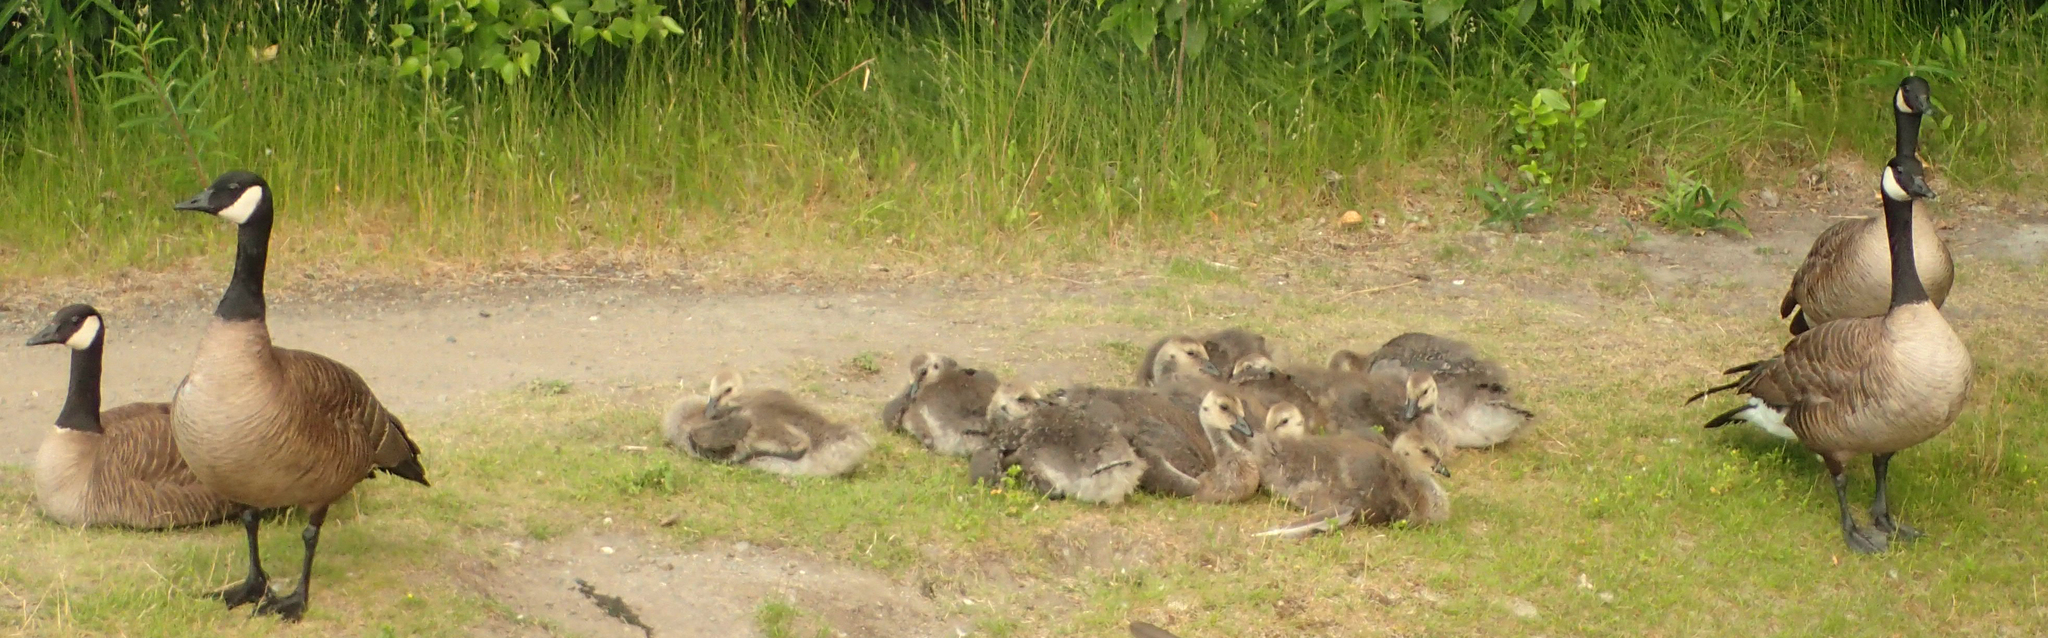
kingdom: Animalia
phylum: Chordata
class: Aves
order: Anseriformes
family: Anatidae
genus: Branta
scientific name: Branta canadensis
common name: Canada goose
